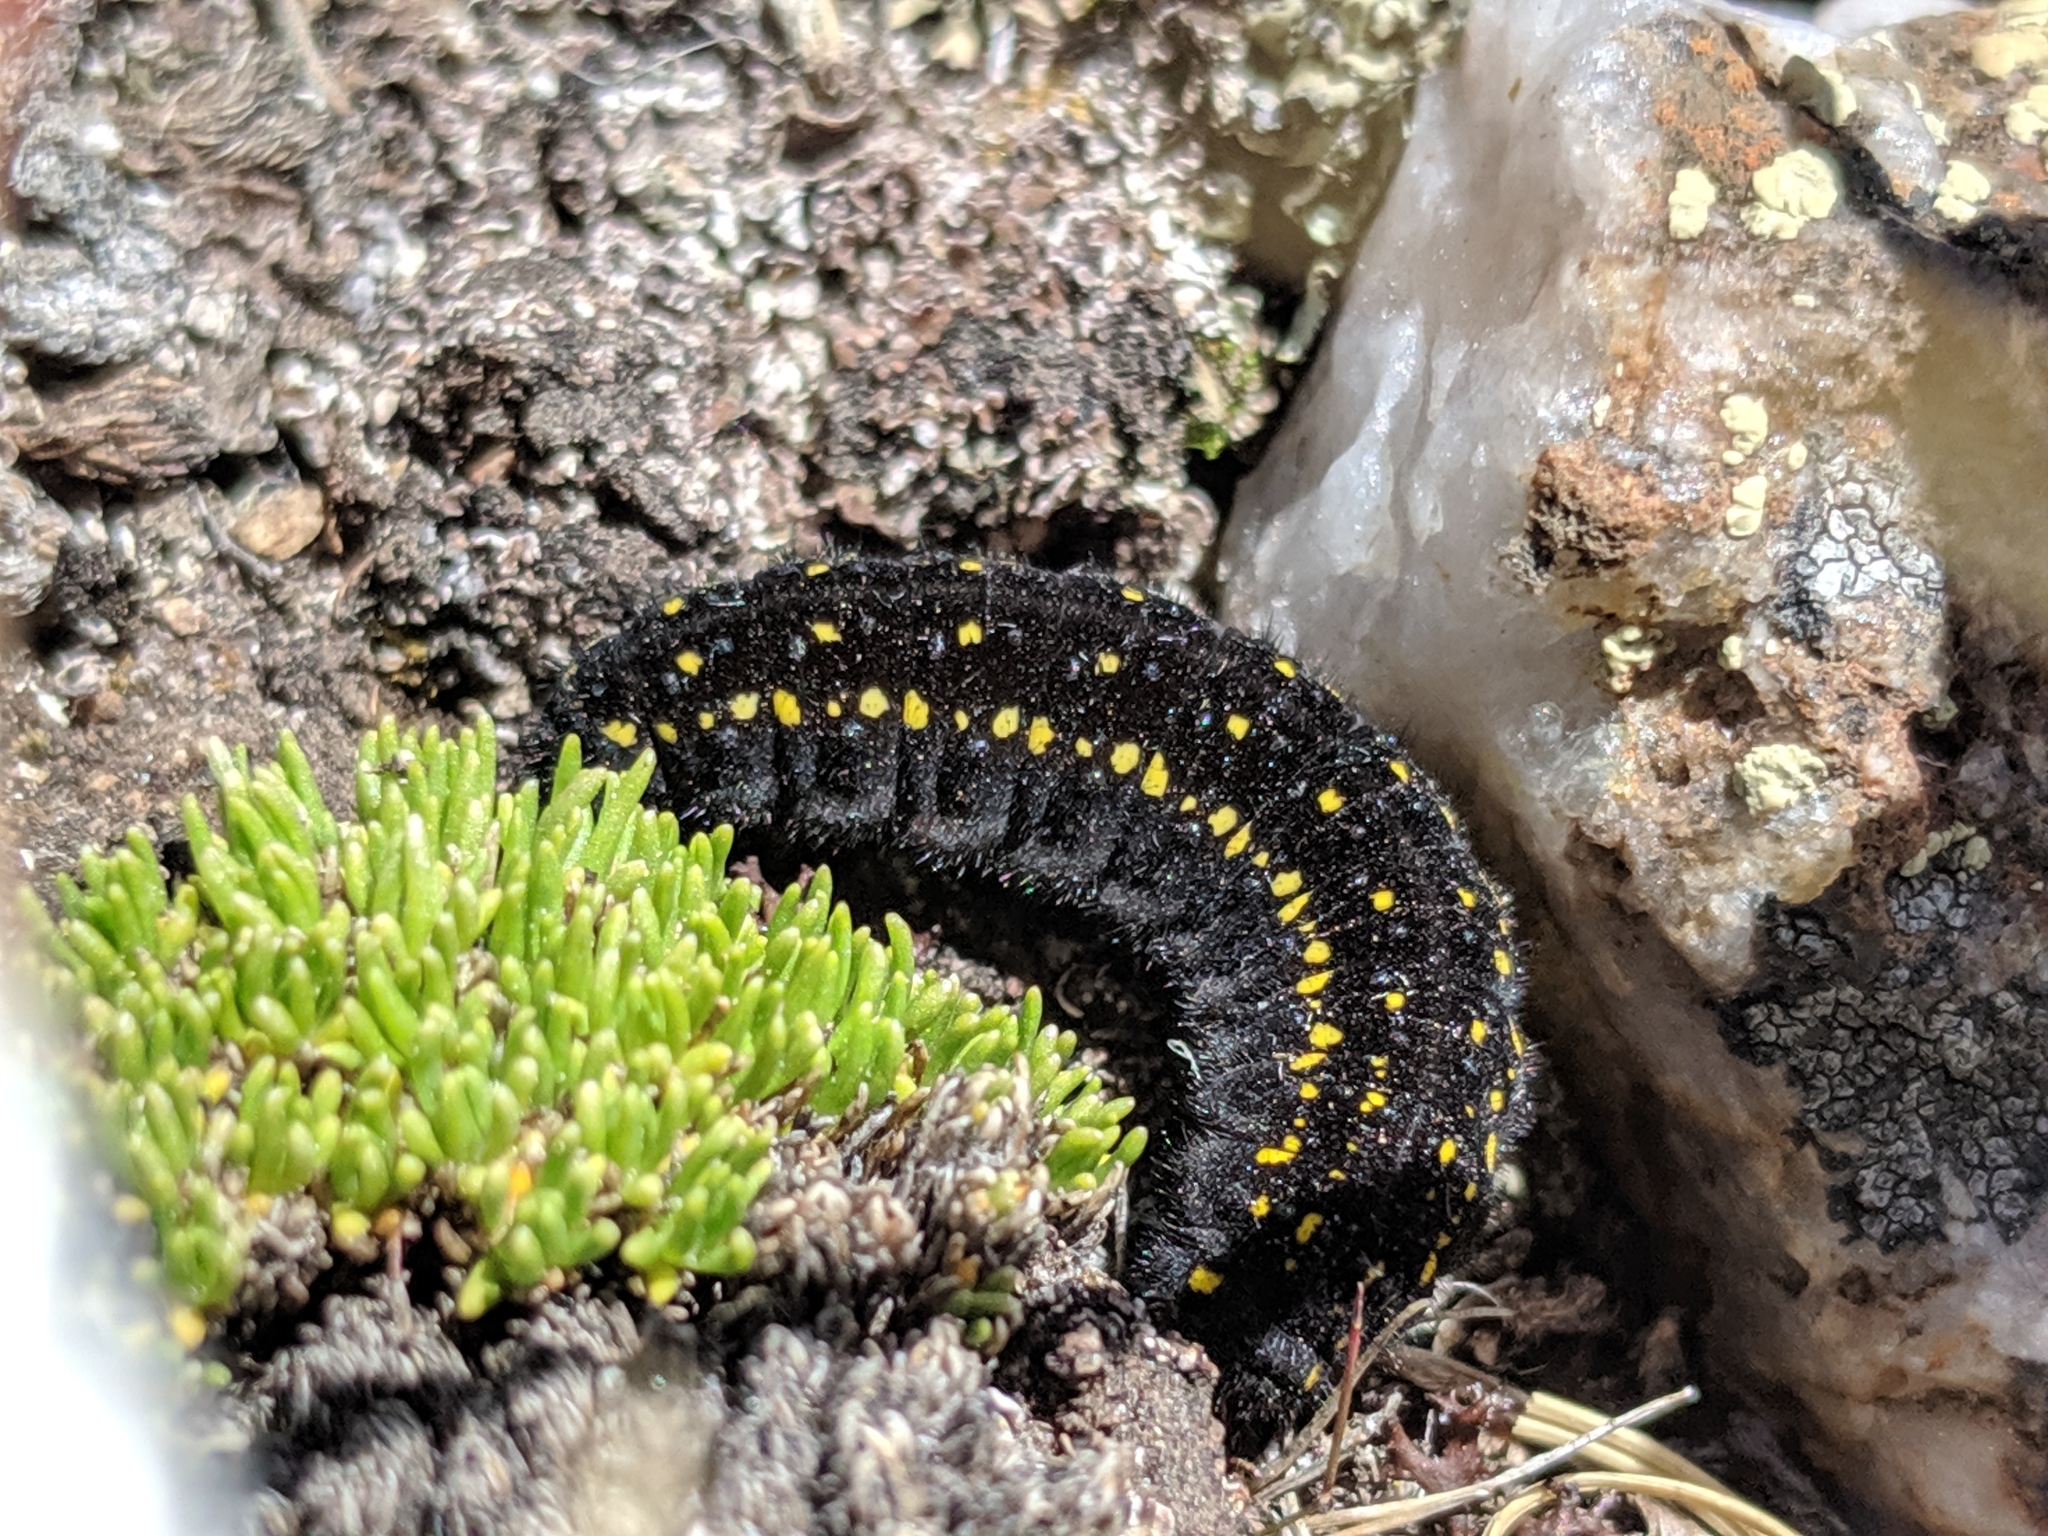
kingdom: Animalia
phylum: Arthropoda
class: Insecta
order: Lepidoptera
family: Papilionidae
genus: Parnassius
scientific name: Parnassius smintheus
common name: Mountain parnassian
